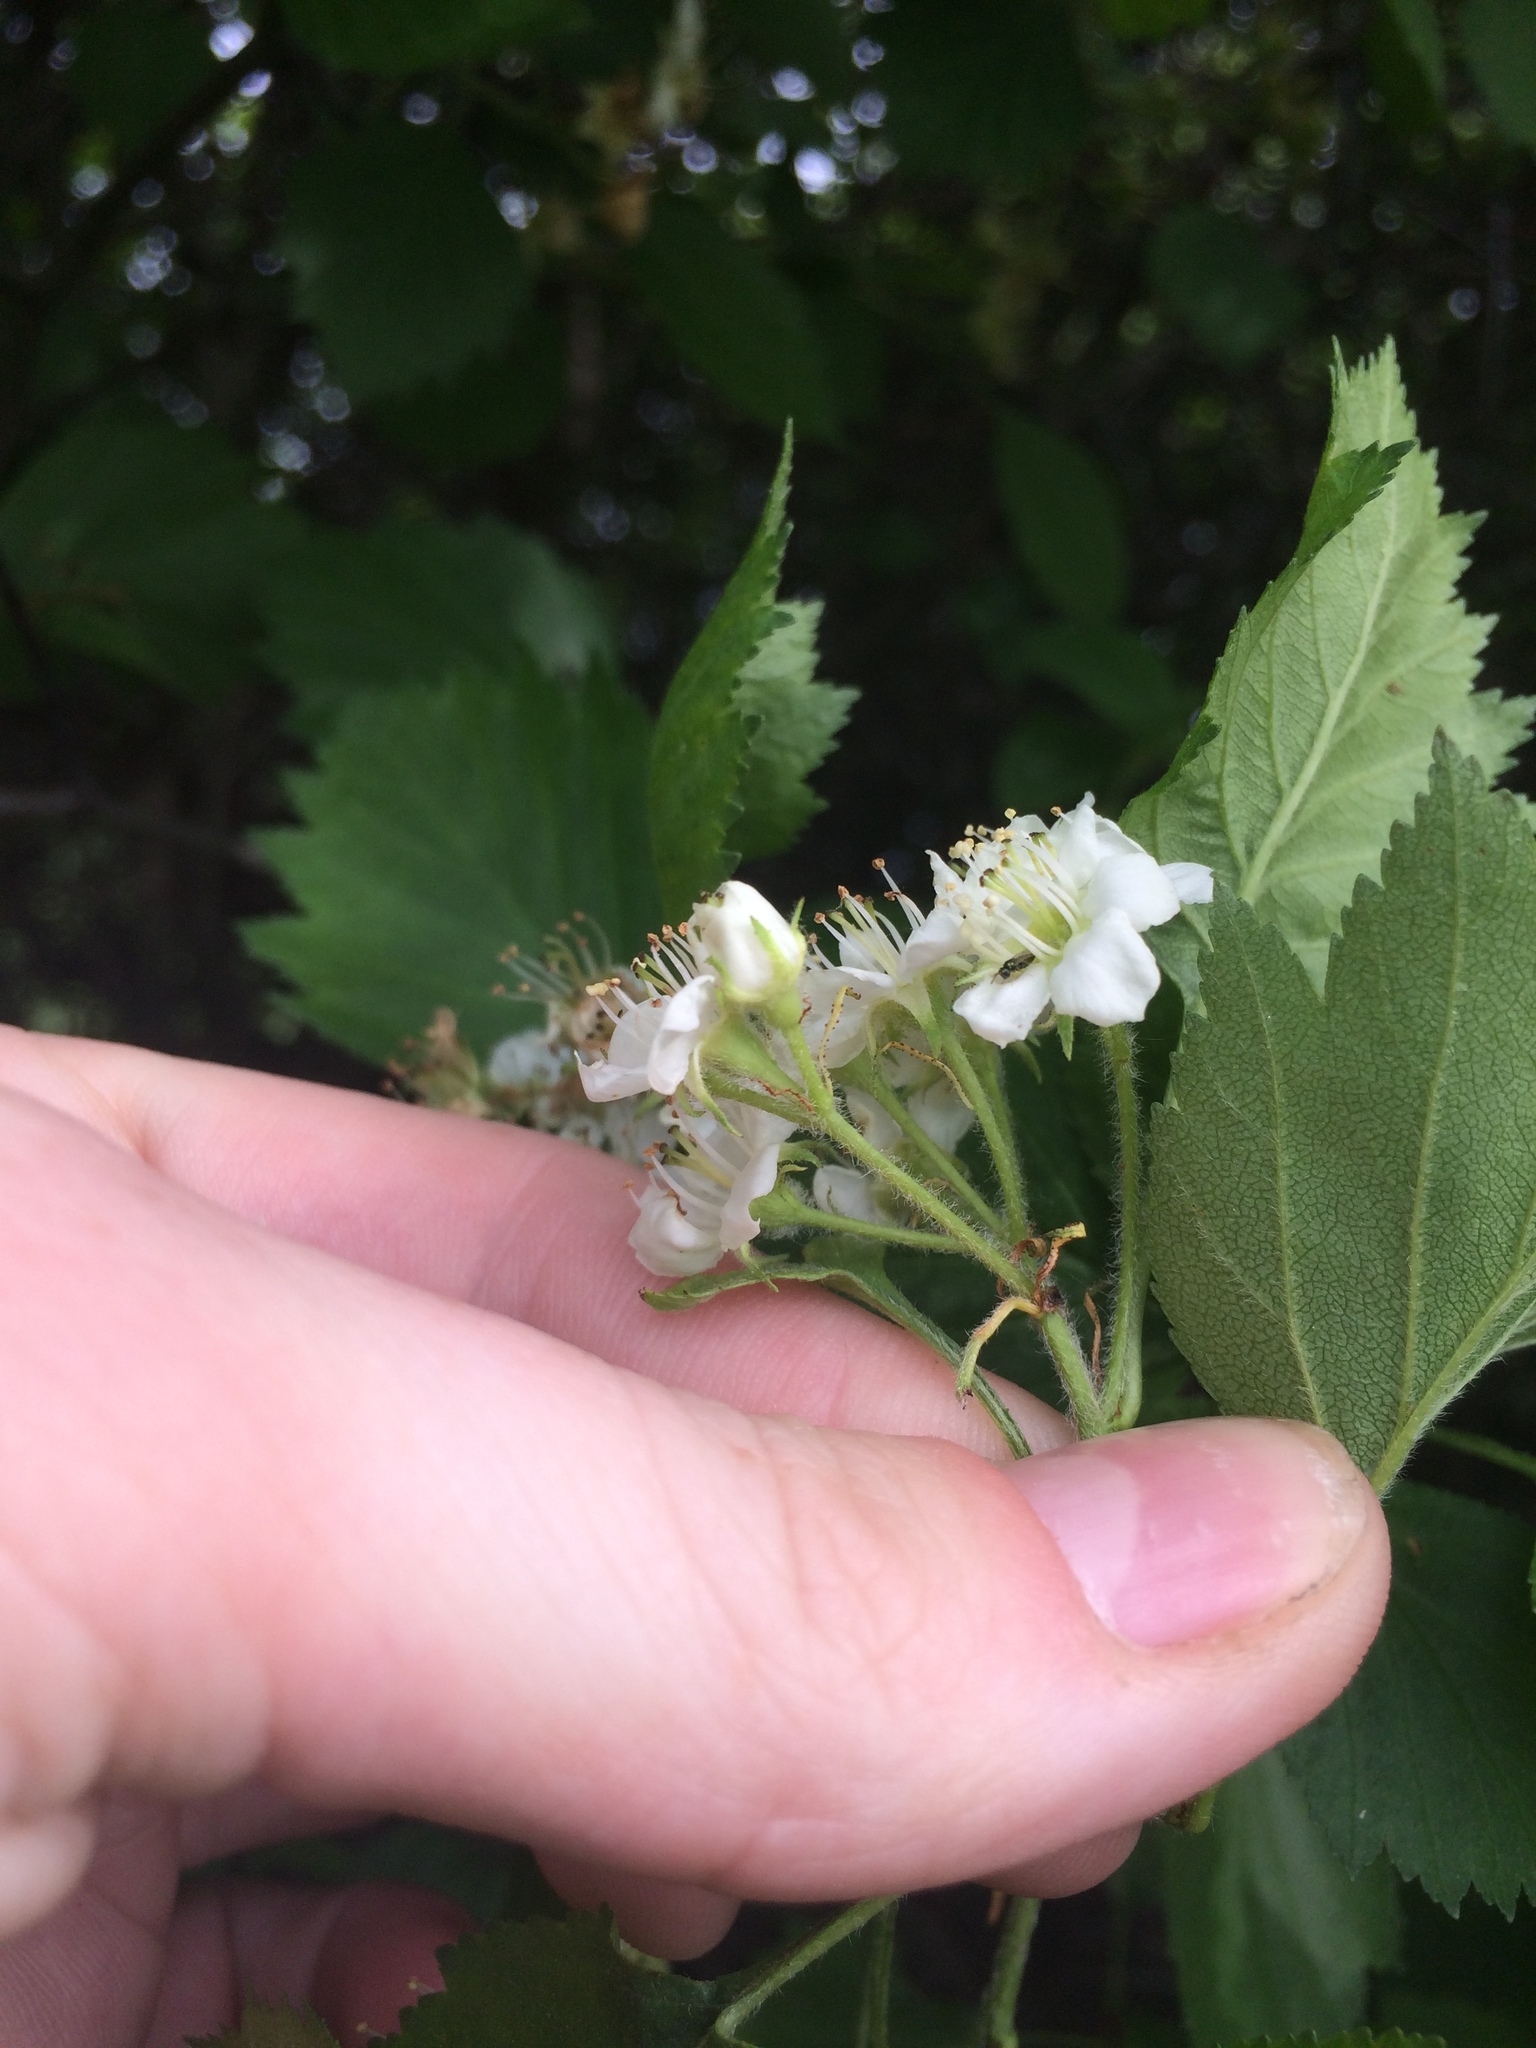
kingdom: Plantae
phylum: Tracheophyta
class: Magnoliopsida
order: Rosales
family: Rosaceae
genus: Crataegus
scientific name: Crataegus chrysocarpa
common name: Fire-berry hawthorn
